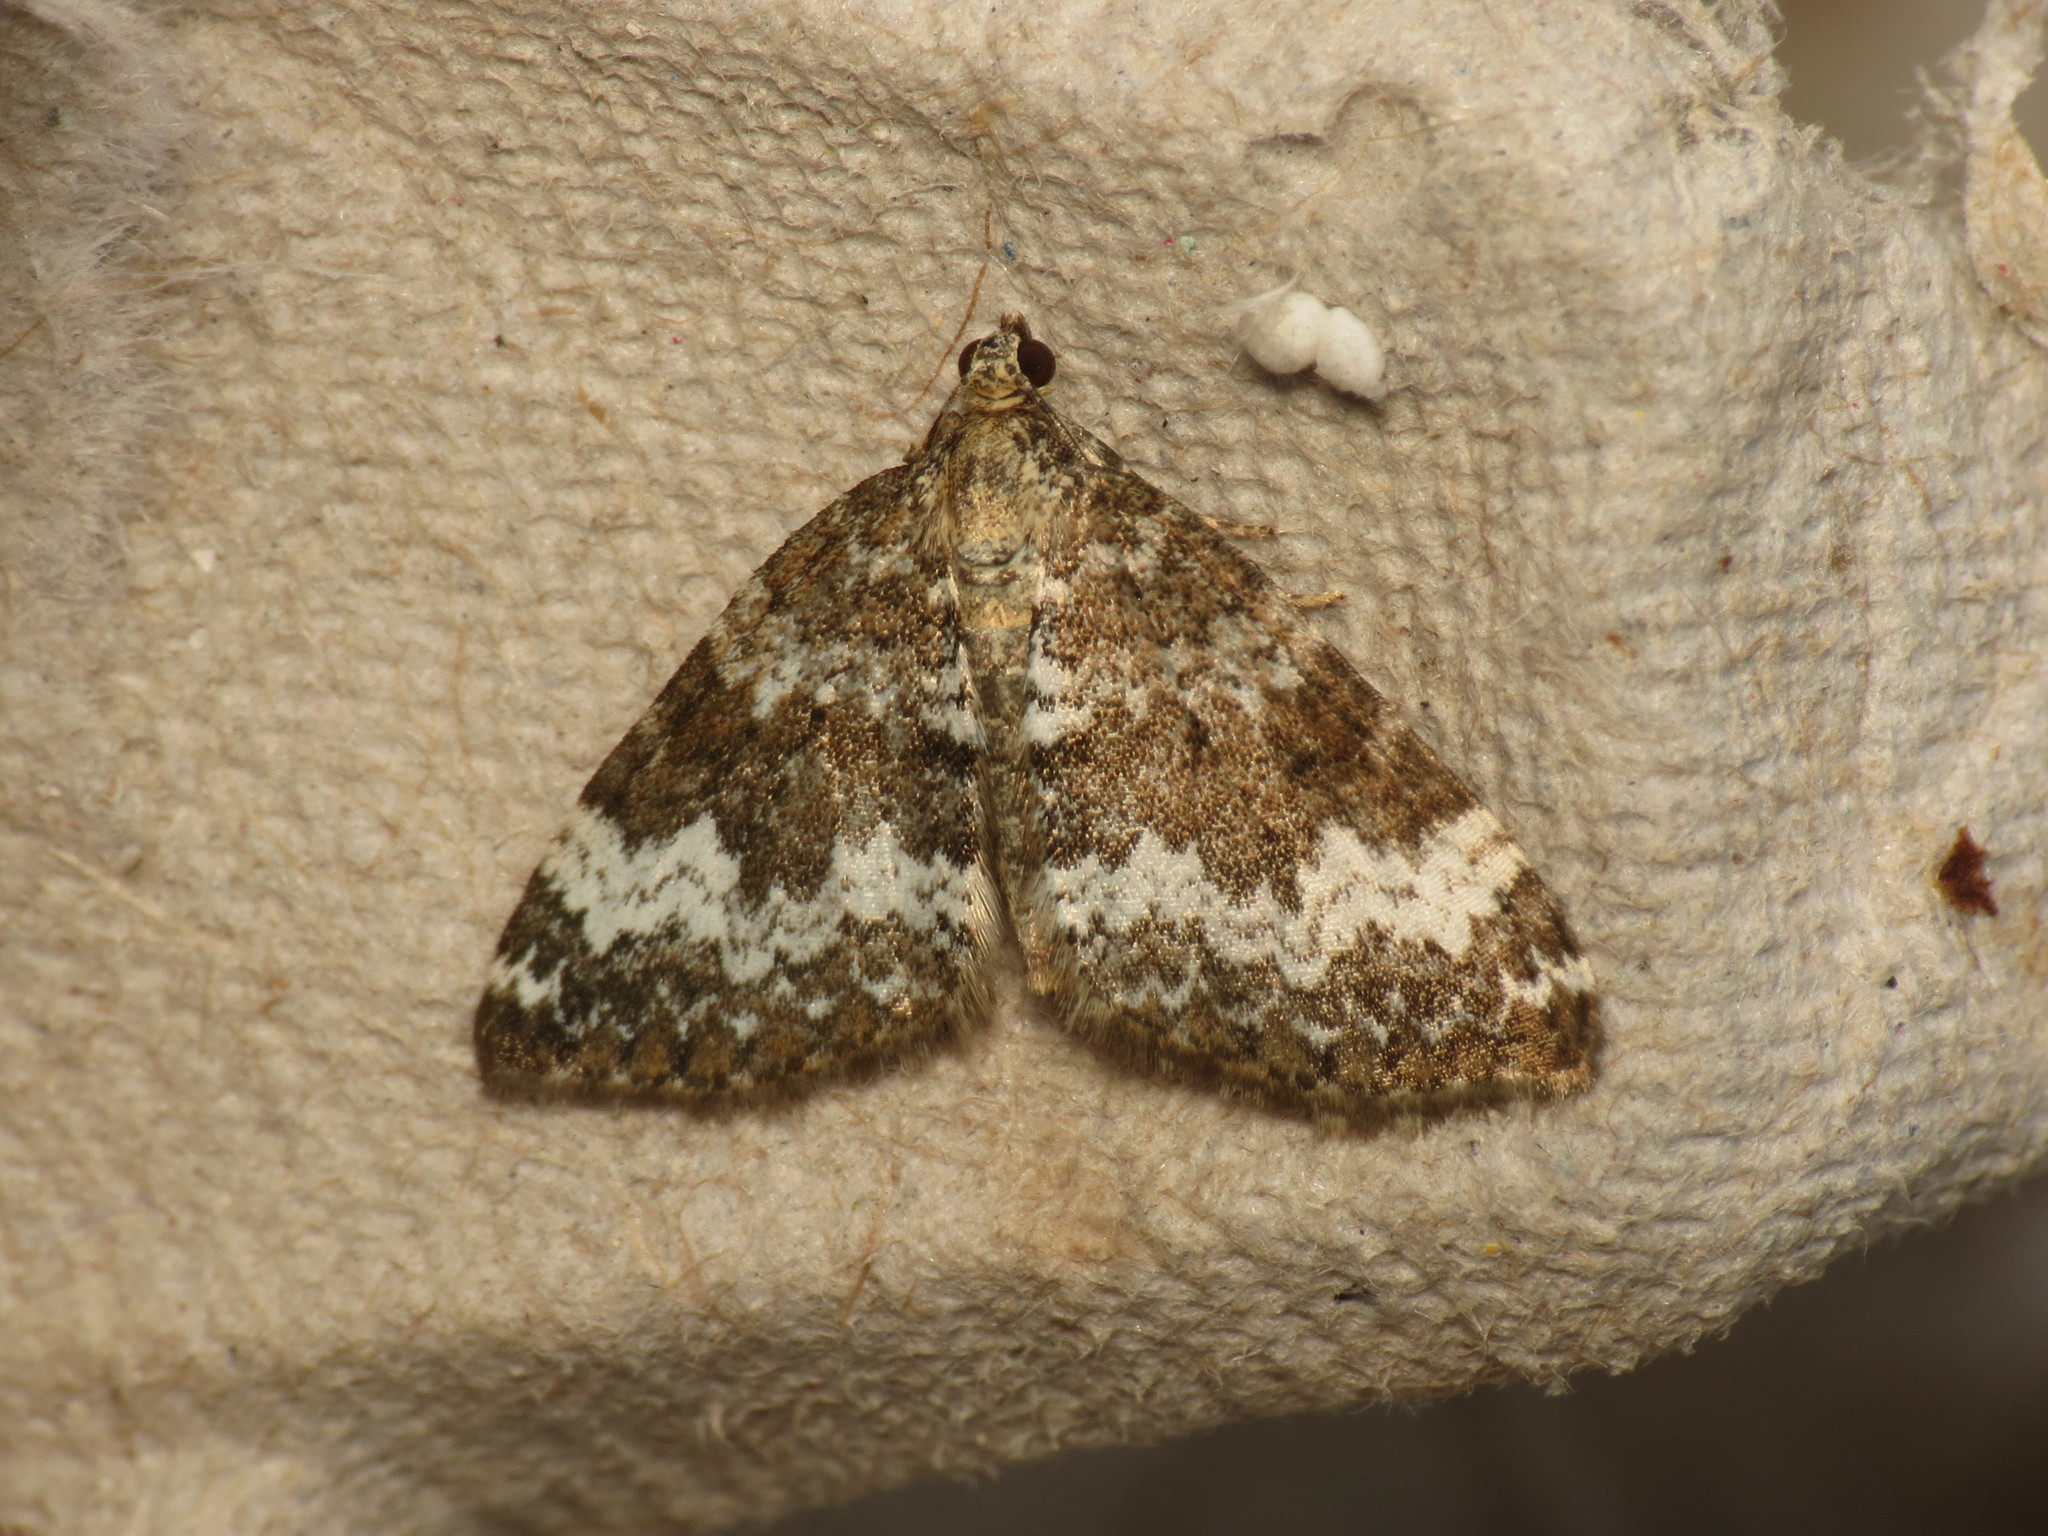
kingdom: Animalia
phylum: Arthropoda
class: Insecta
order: Lepidoptera
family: Geometridae
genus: Perizoma
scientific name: Perizoma alchemillata
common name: Small rivulet
